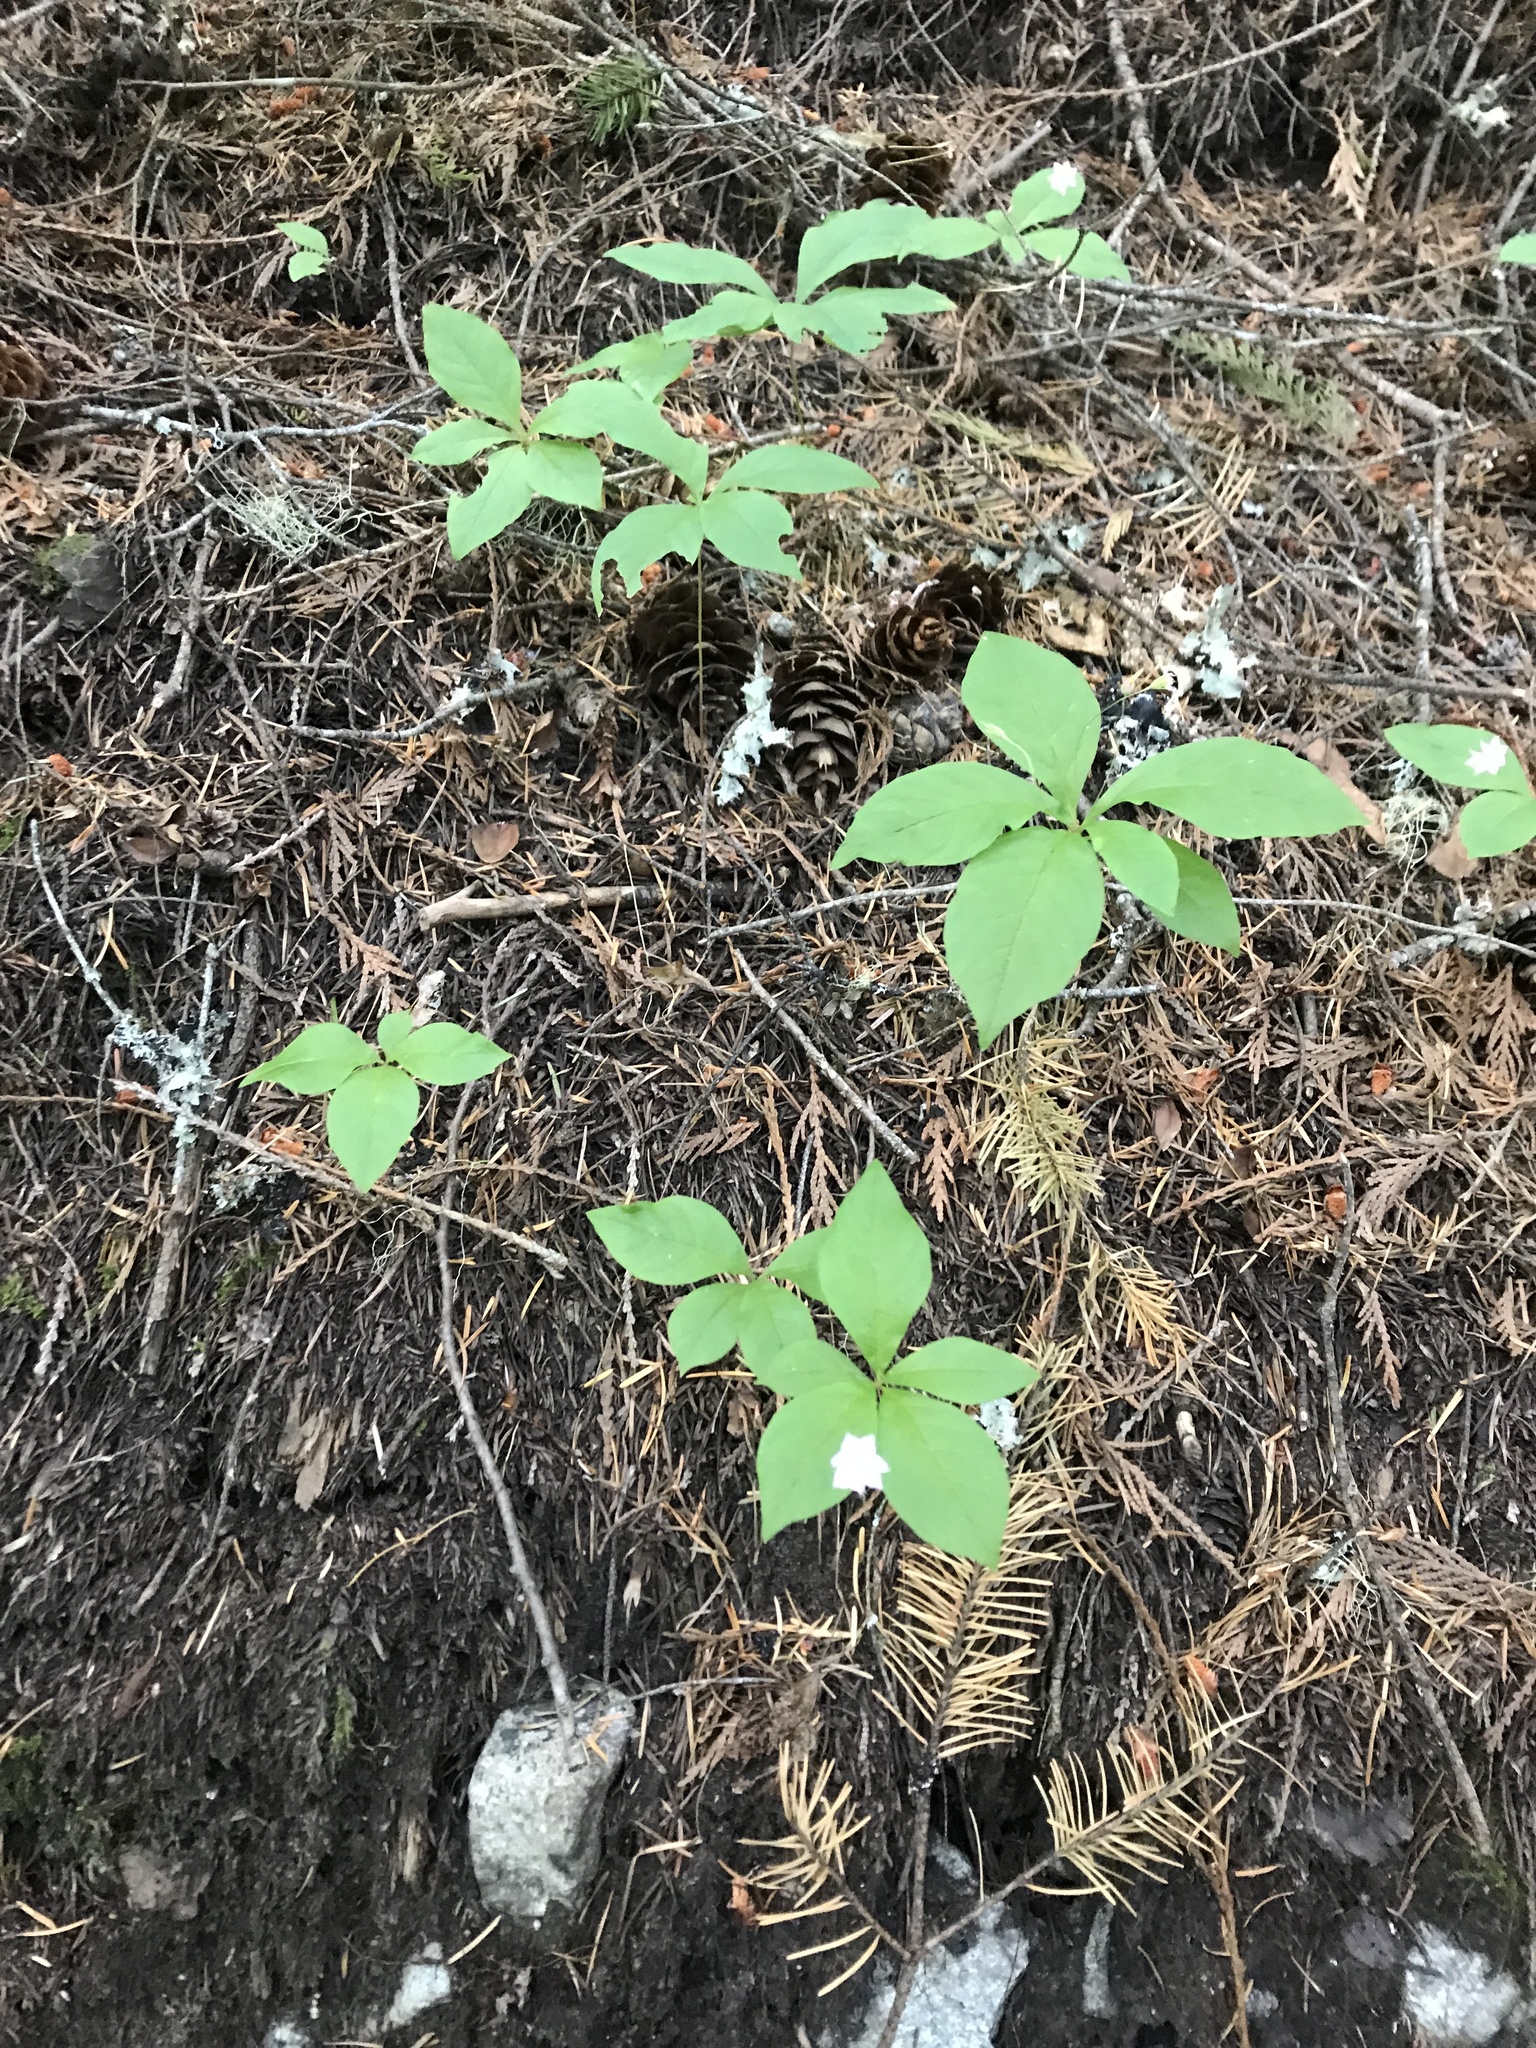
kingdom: Plantae
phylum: Tracheophyta
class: Magnoliopsida
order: Ericales
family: Primulaceae
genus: Lysimachia
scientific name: Lysimachia latifolia
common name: Pacific starflower
